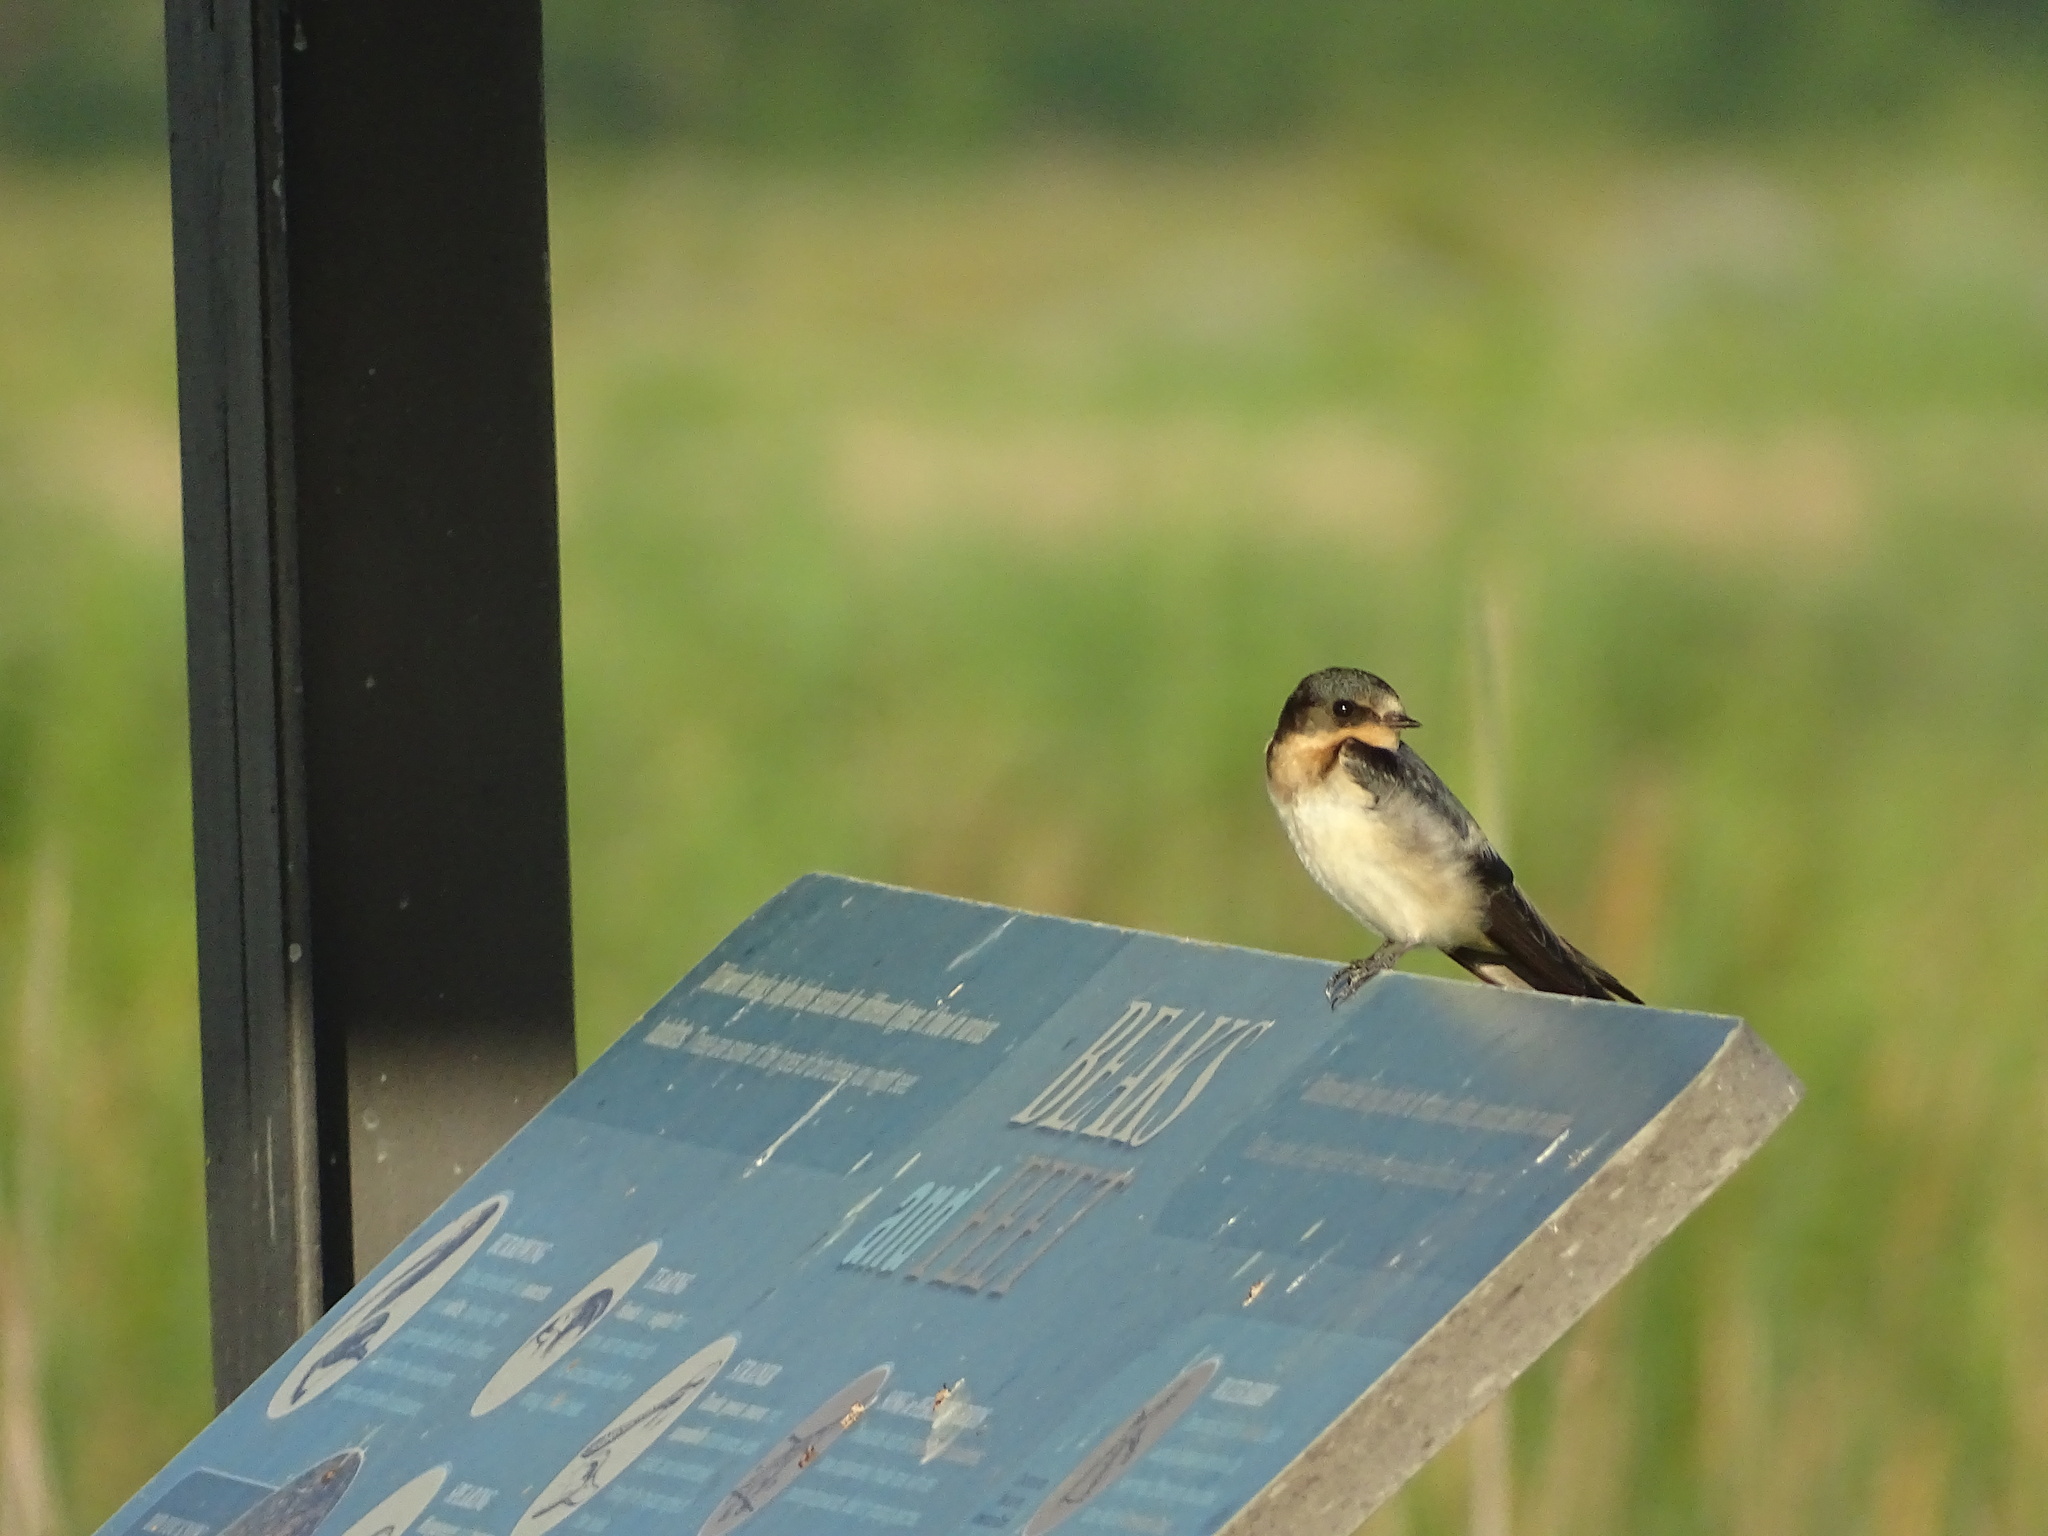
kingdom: Animalia
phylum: Chordata
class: Aves
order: Passeriformes
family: Hirundinidae
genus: Hirundo
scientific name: Hirundo rustica
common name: Barn swallow
